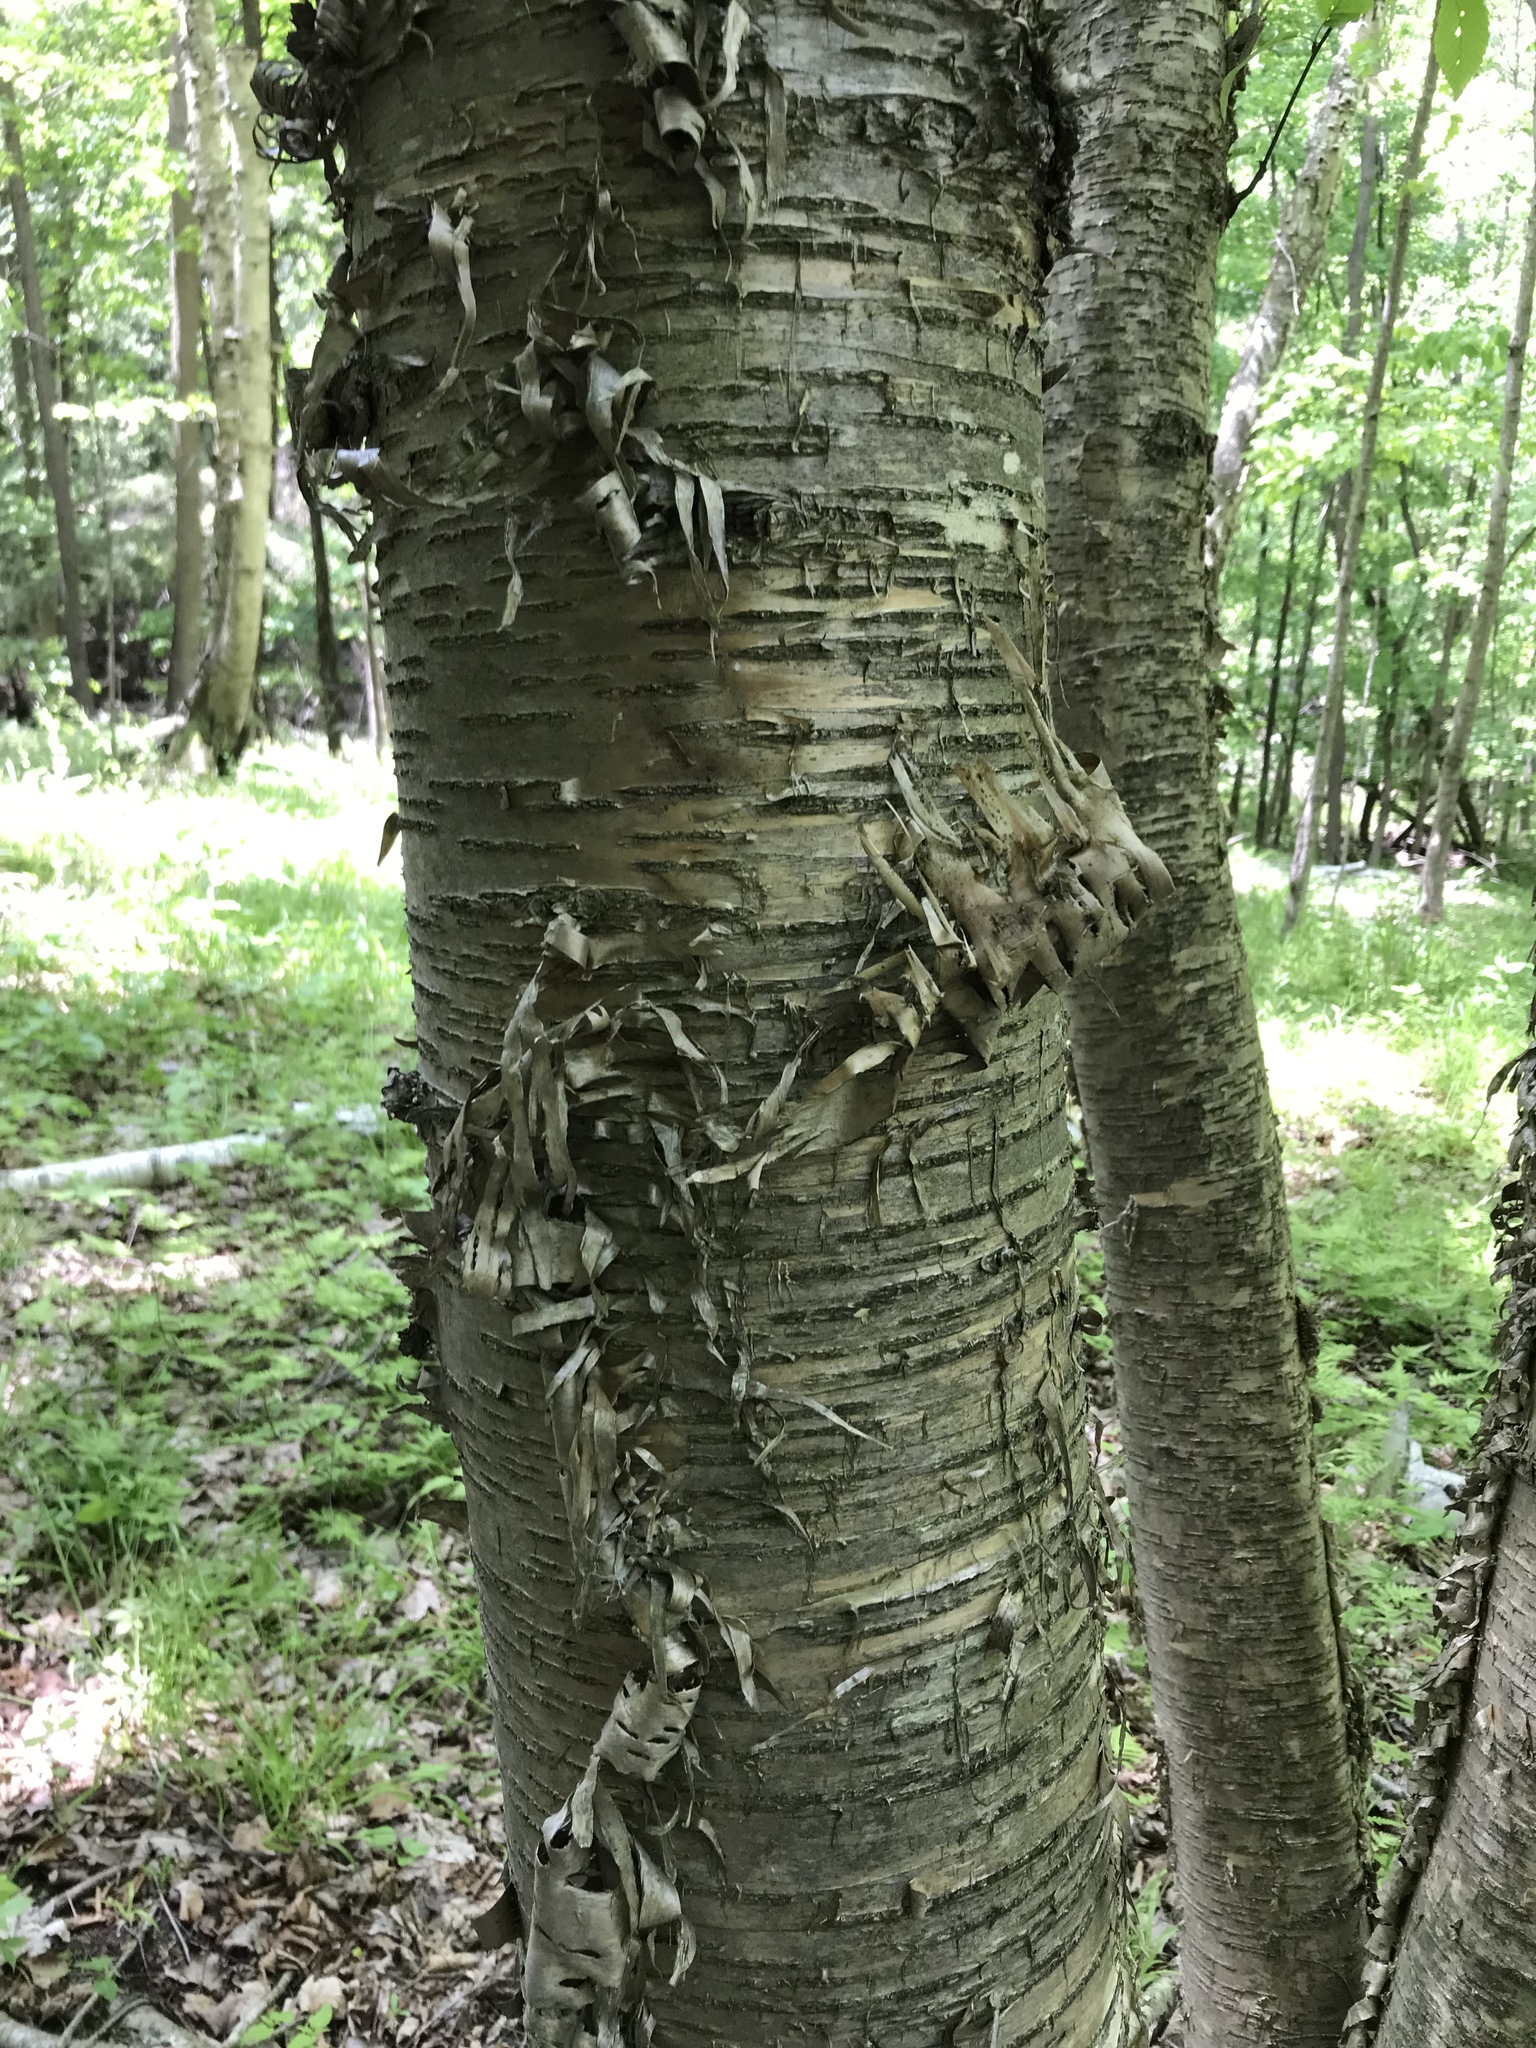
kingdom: Plantae
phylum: Tracheophyta
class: Magnoliopsida
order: Fagales
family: Betulaceae
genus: Betula
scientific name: Betula alleghaniensis
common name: Yellow birch
